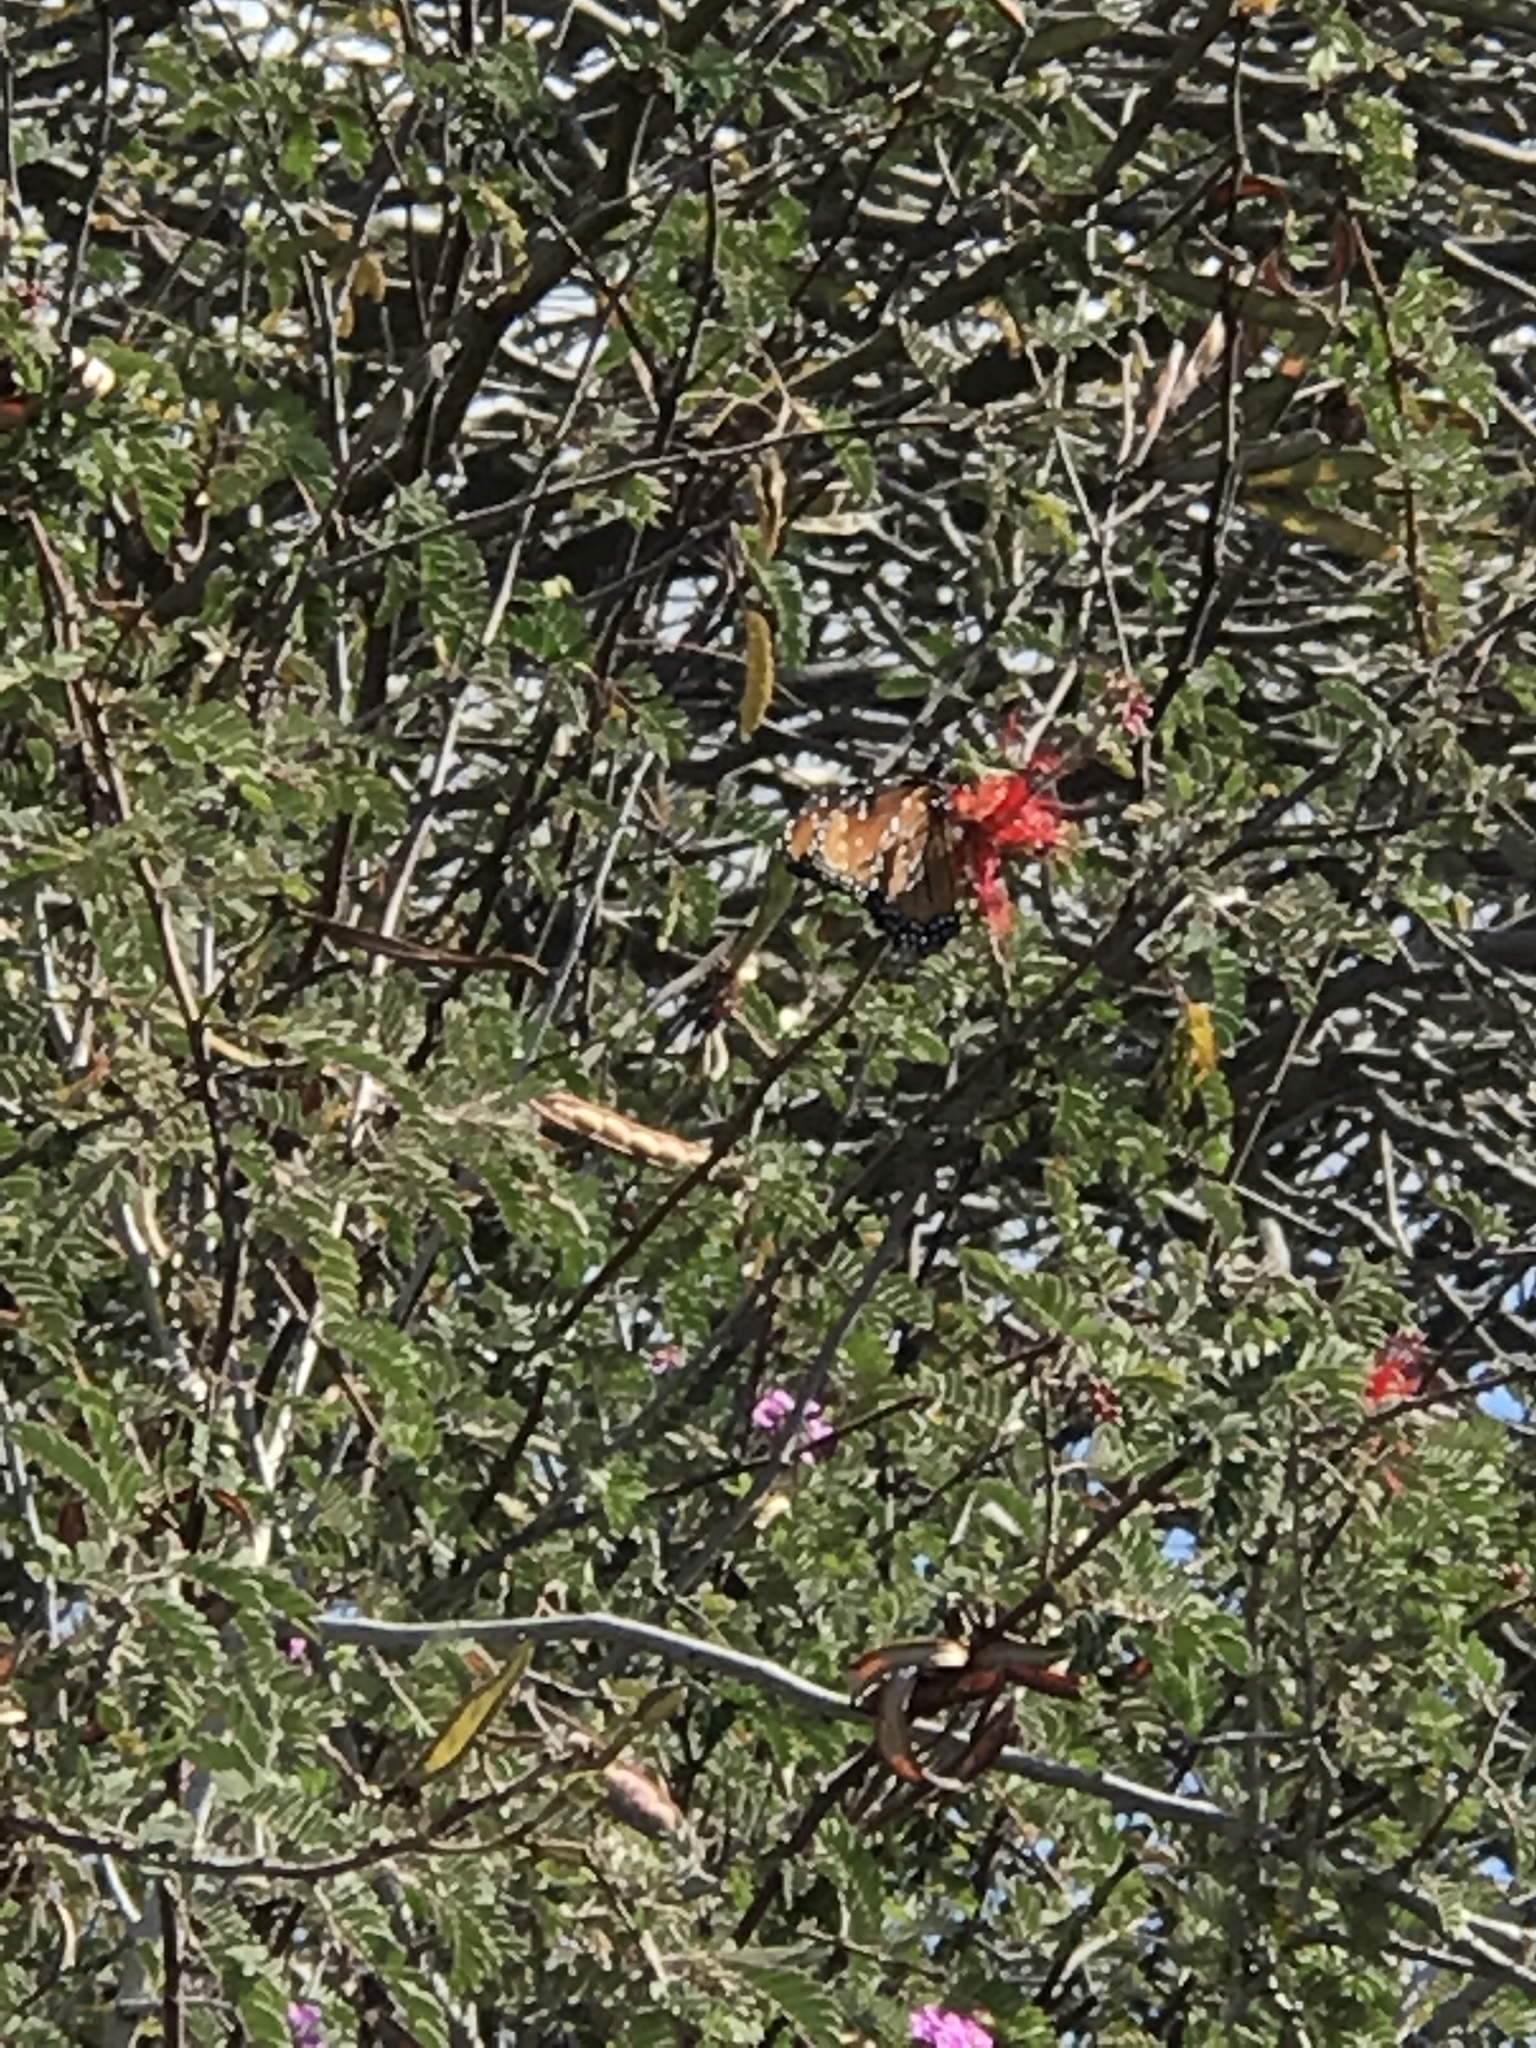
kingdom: Animalia
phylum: Arthropoda
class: Insecta
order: Lepidoptera
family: Nymphalidae
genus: Danaus
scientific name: Danaus gilippus
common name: Queen
